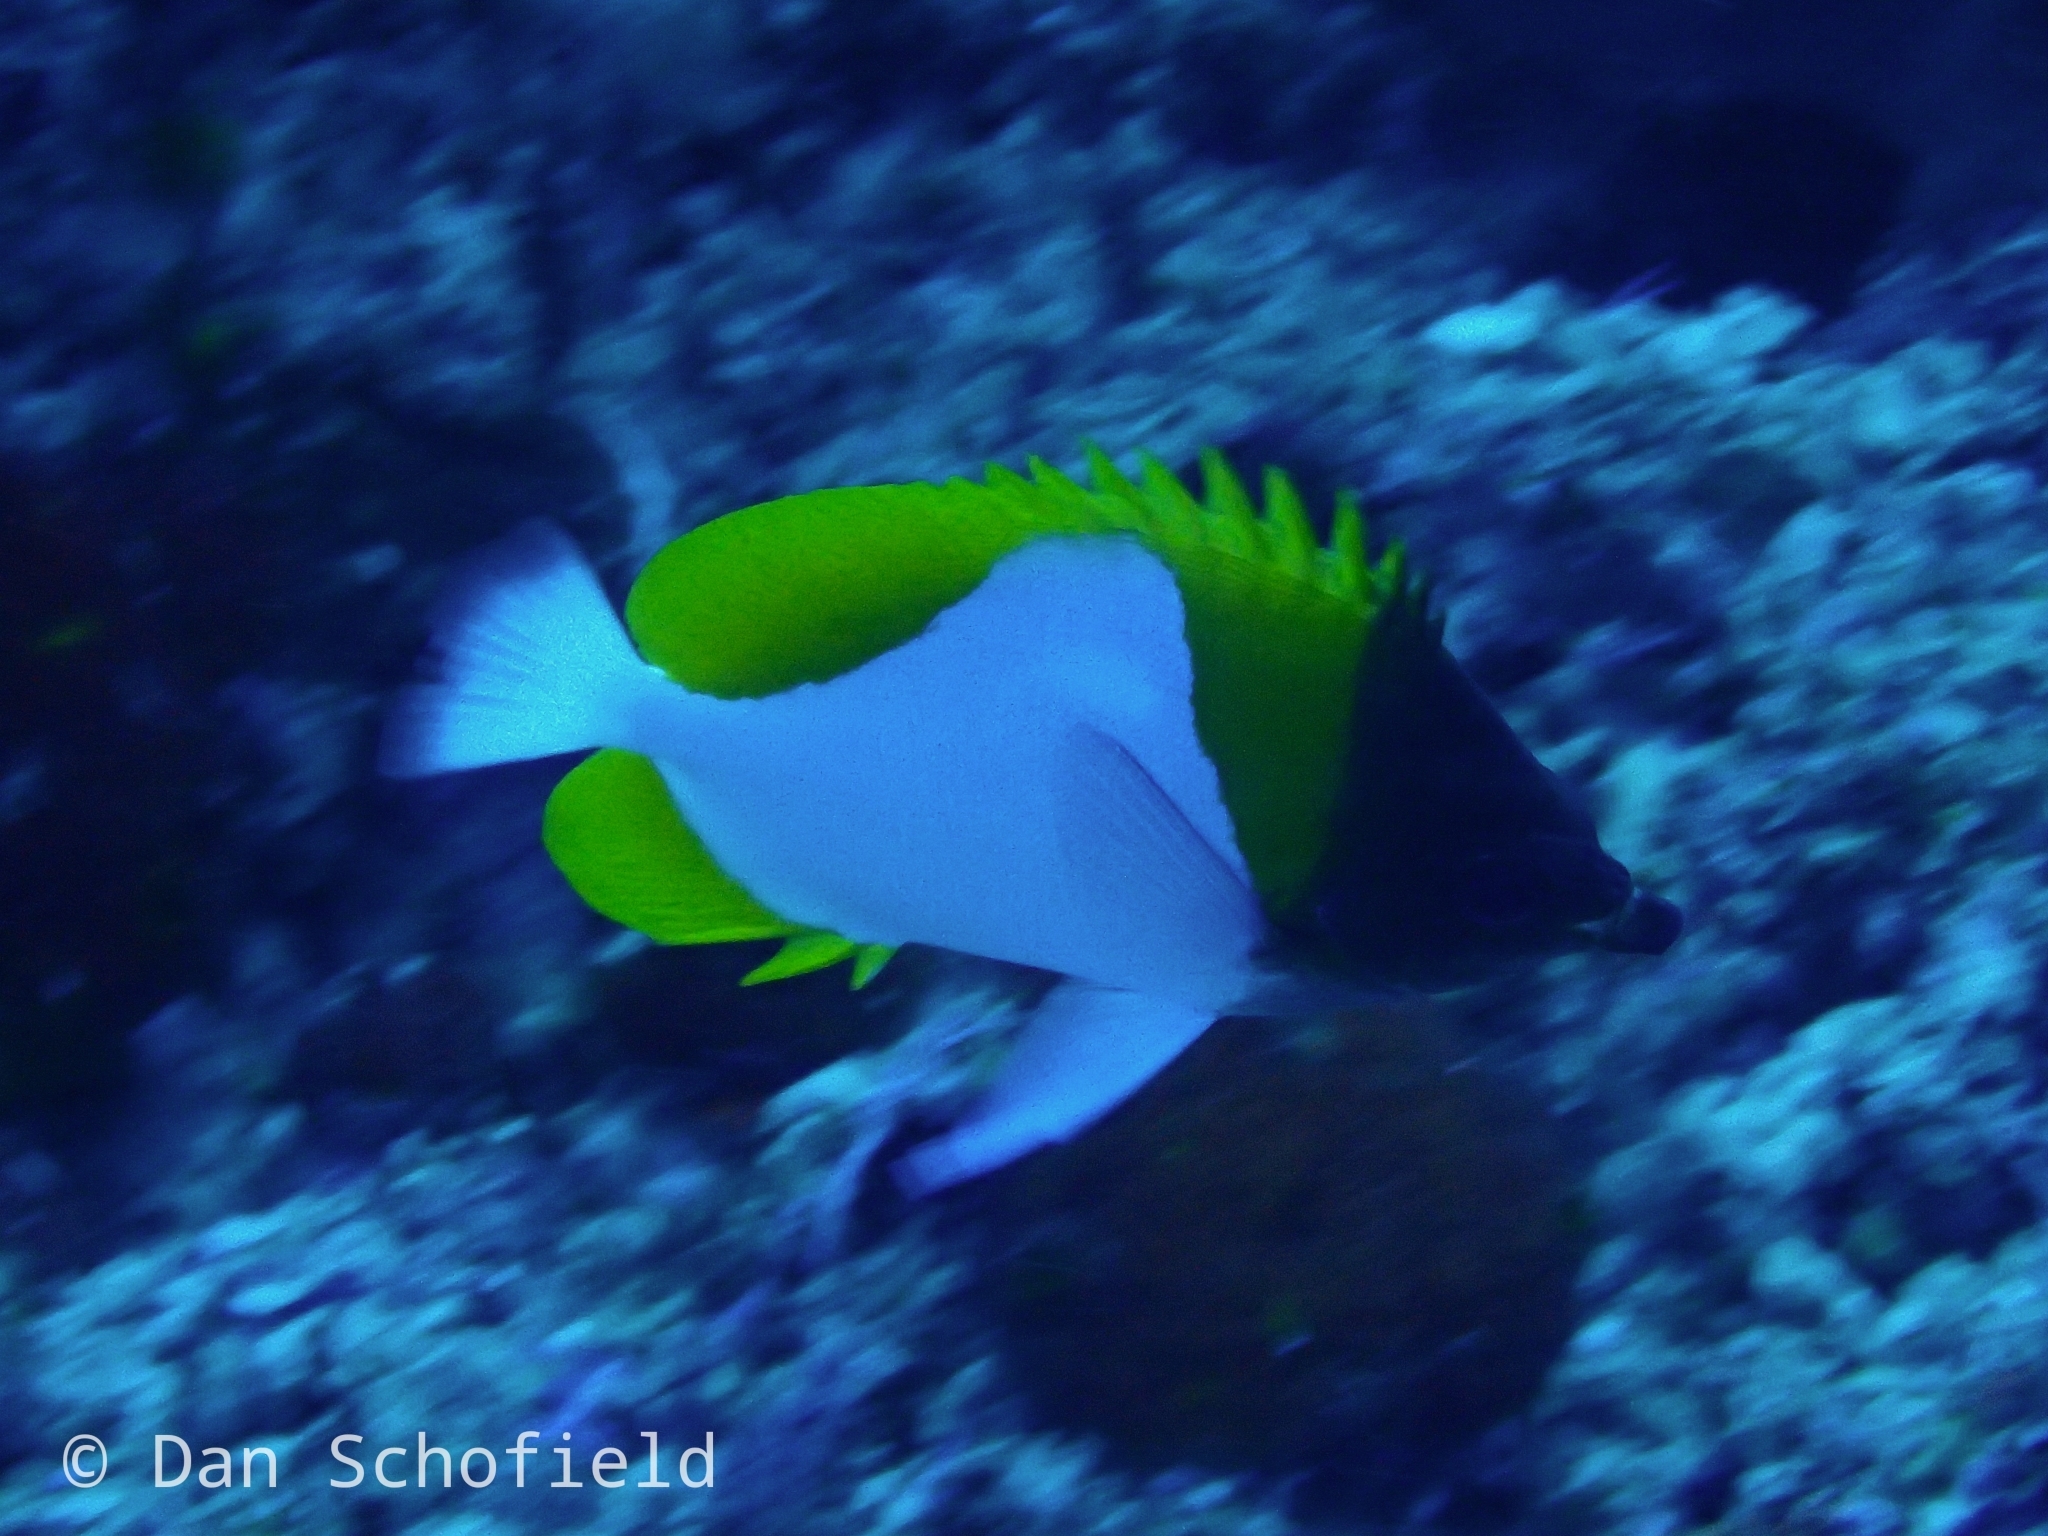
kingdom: Animalia
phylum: Chordata
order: Perciformes
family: Chaetodontidae
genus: Hemitaurichthys
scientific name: Hemitaurichthys polylepis
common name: Brushytoothed butterflyfish
